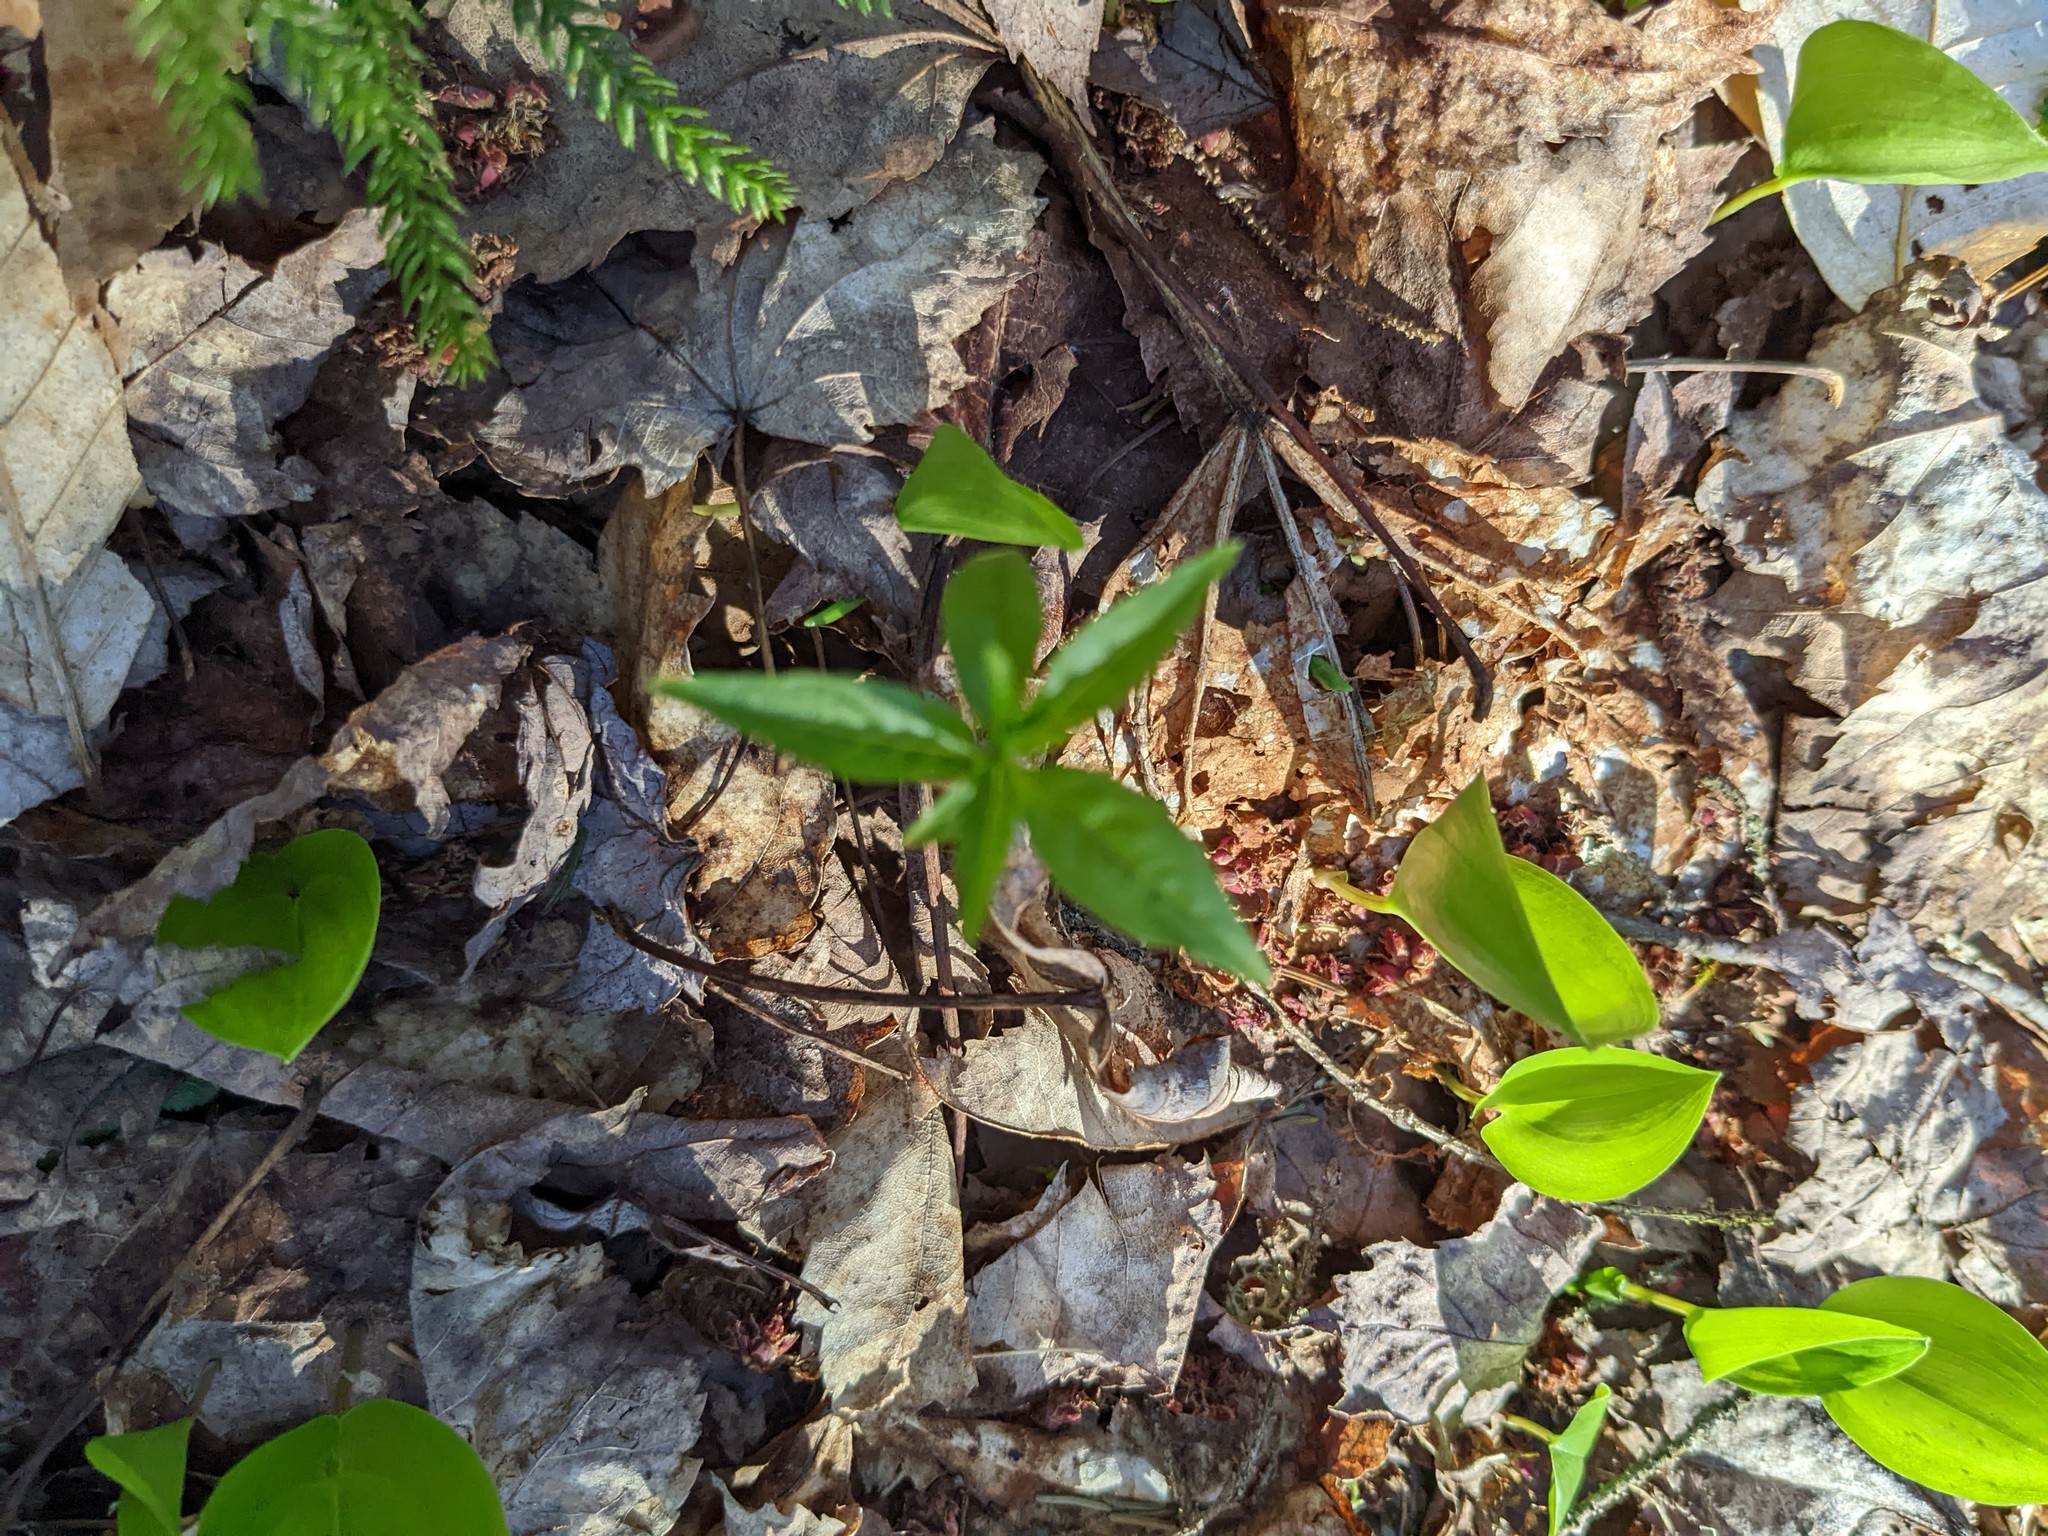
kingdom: Plantae
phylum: Tracheophyta
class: Magnoliopsida
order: Ericales
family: Primulaceae
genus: Lysimachia
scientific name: Lysimachia borealis
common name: American starflower
